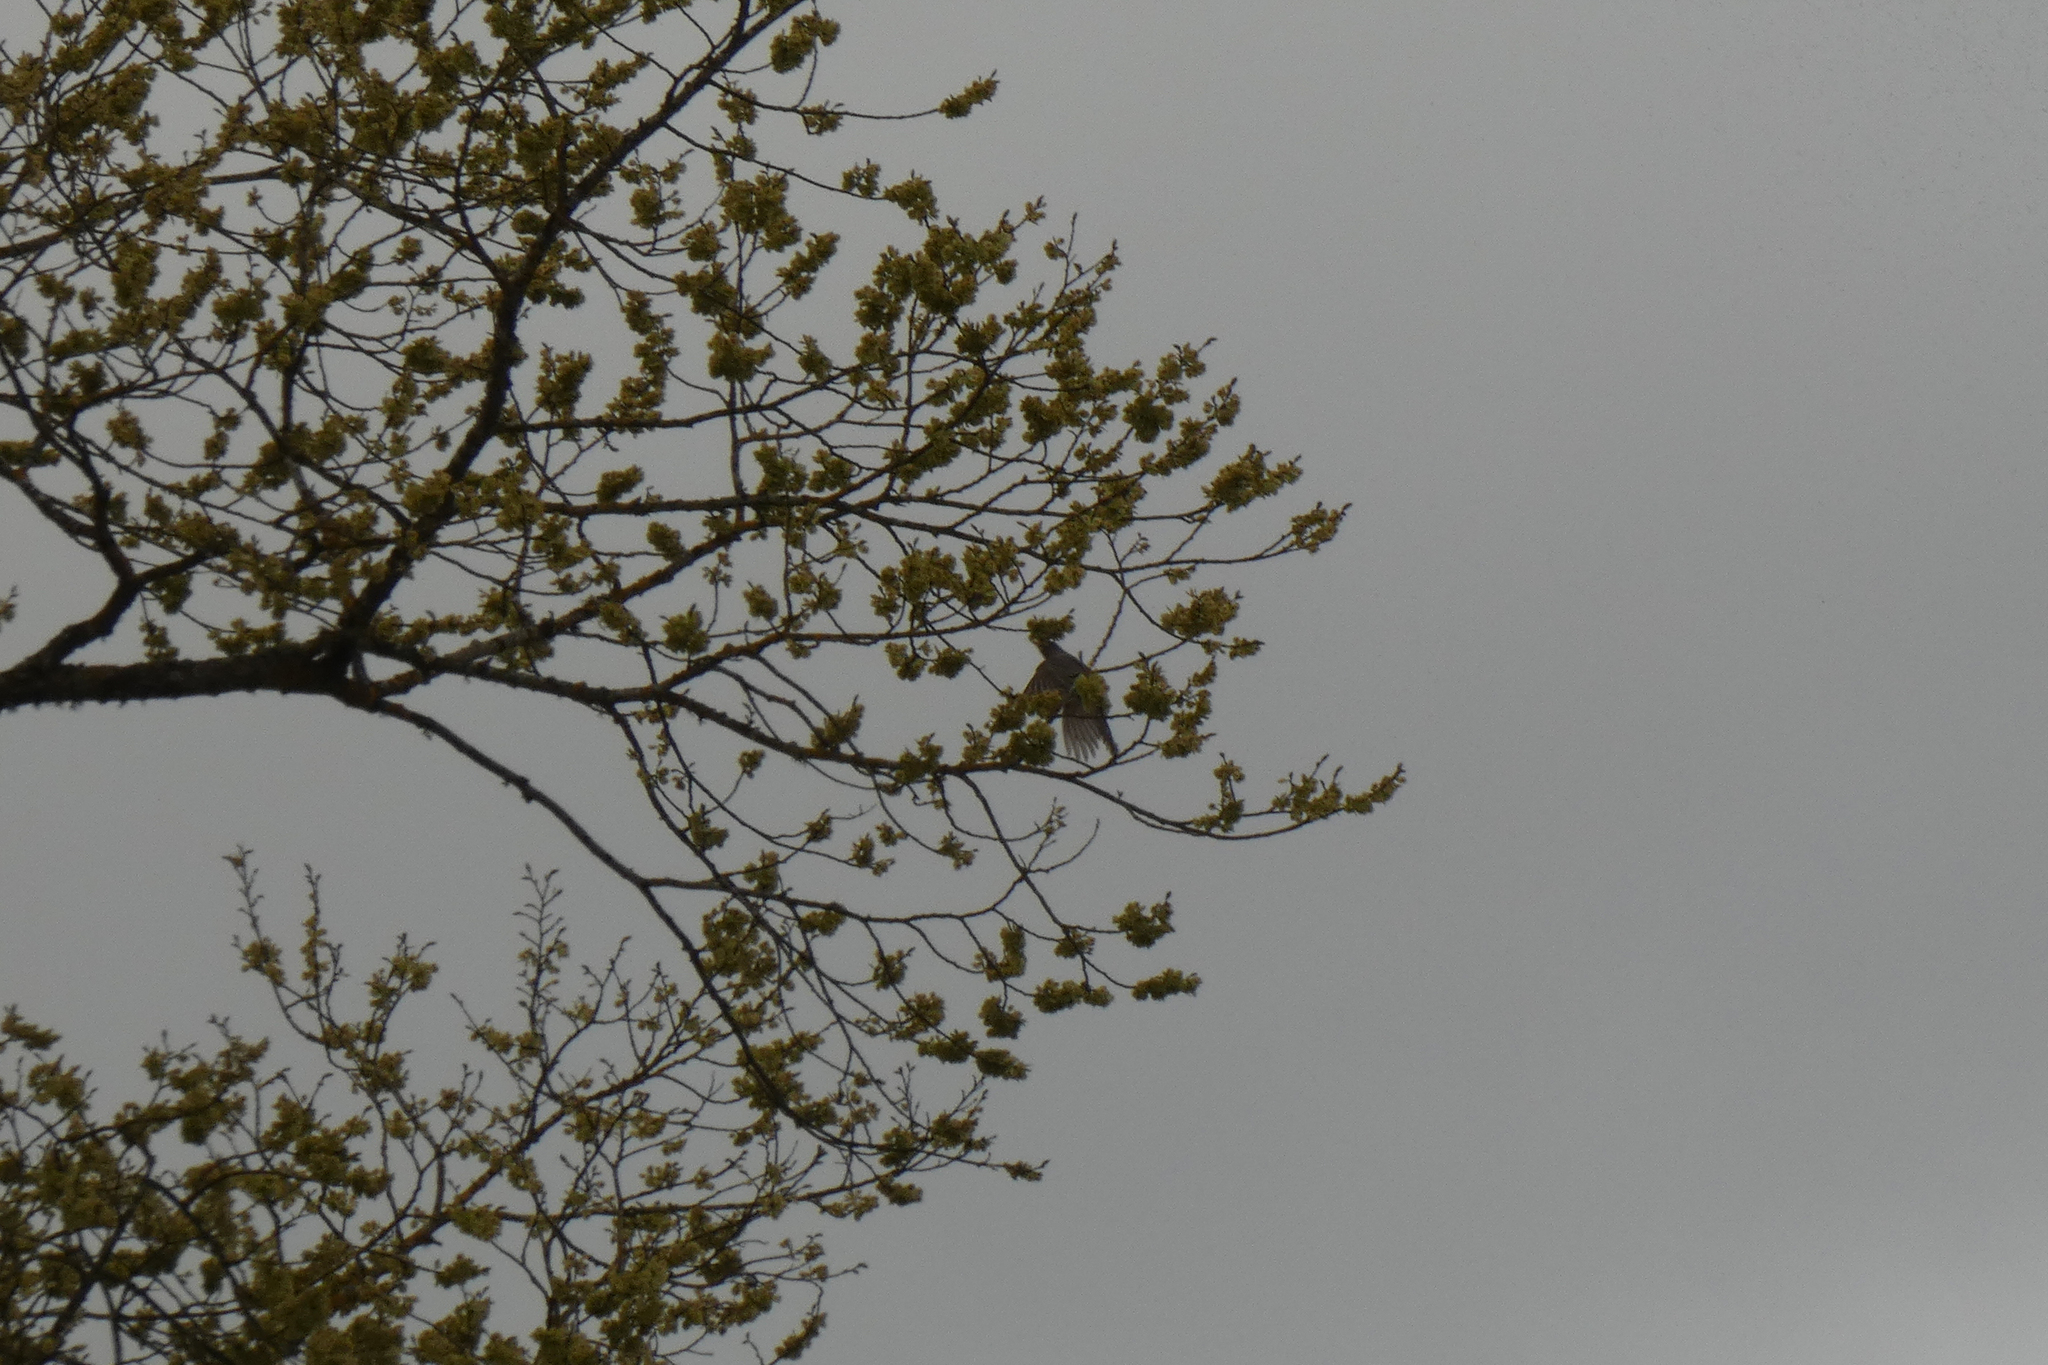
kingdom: Animalia
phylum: Chordata
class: Aves
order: Passeriformes
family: Turdidae
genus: Turdus
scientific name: Turdus migratorius
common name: American robin
